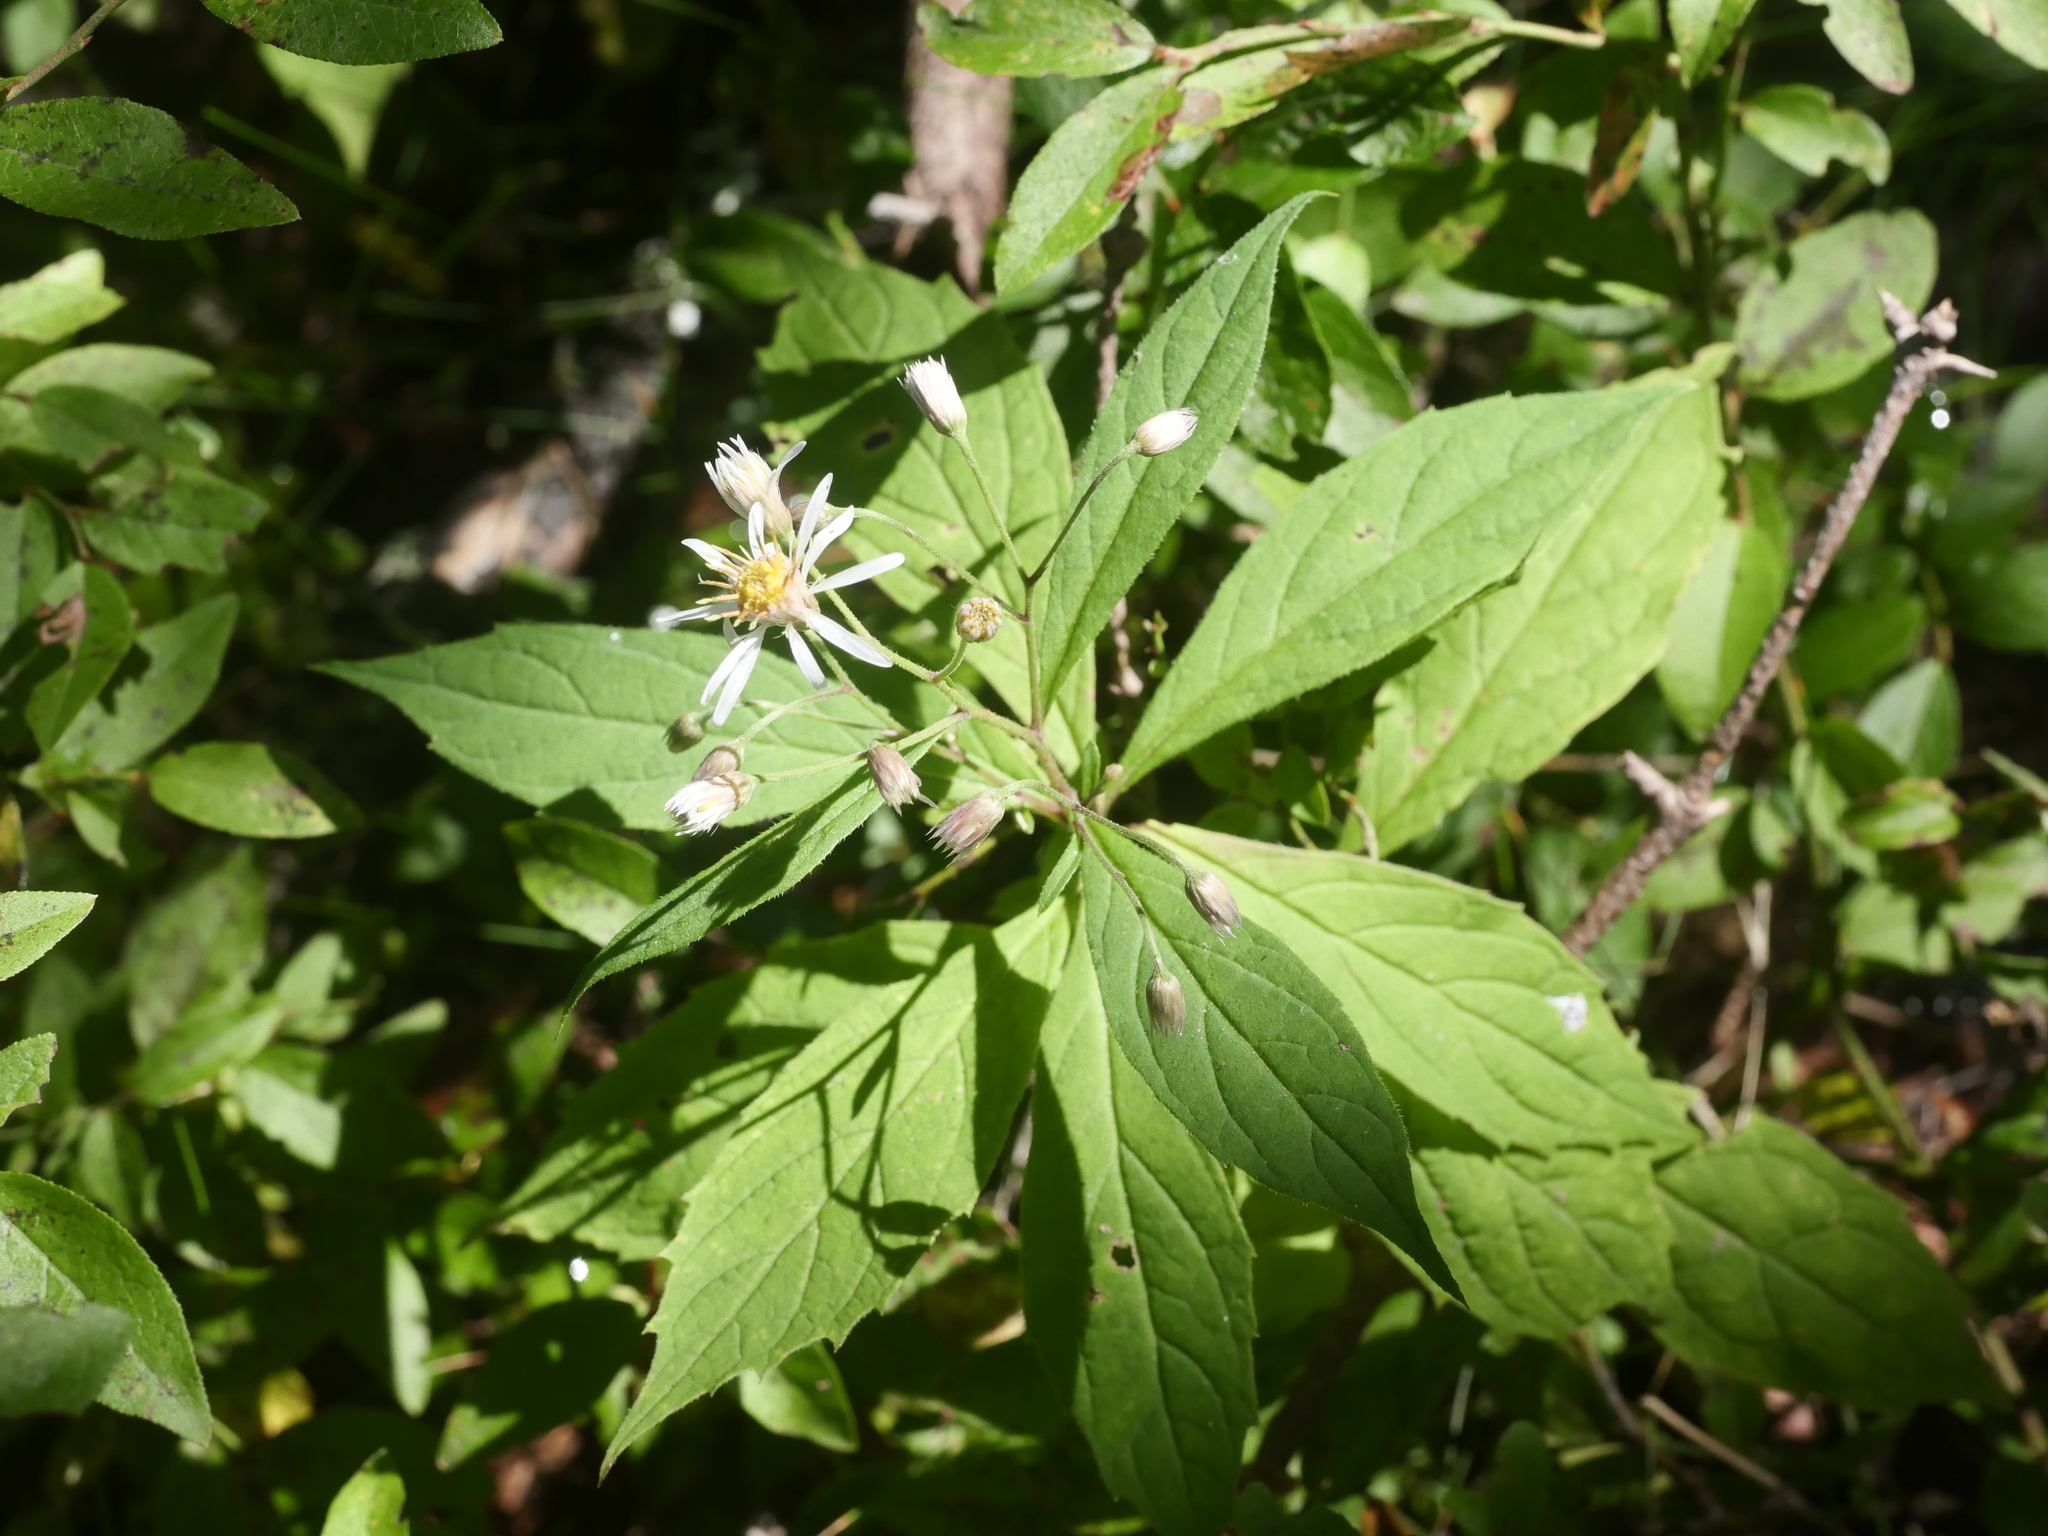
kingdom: Plantae
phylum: Tracheophyta
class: Magnoliopsida
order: Asterales
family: Asteraceae
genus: Oclemena
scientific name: Oclemena acuminata
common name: Mountain aster
